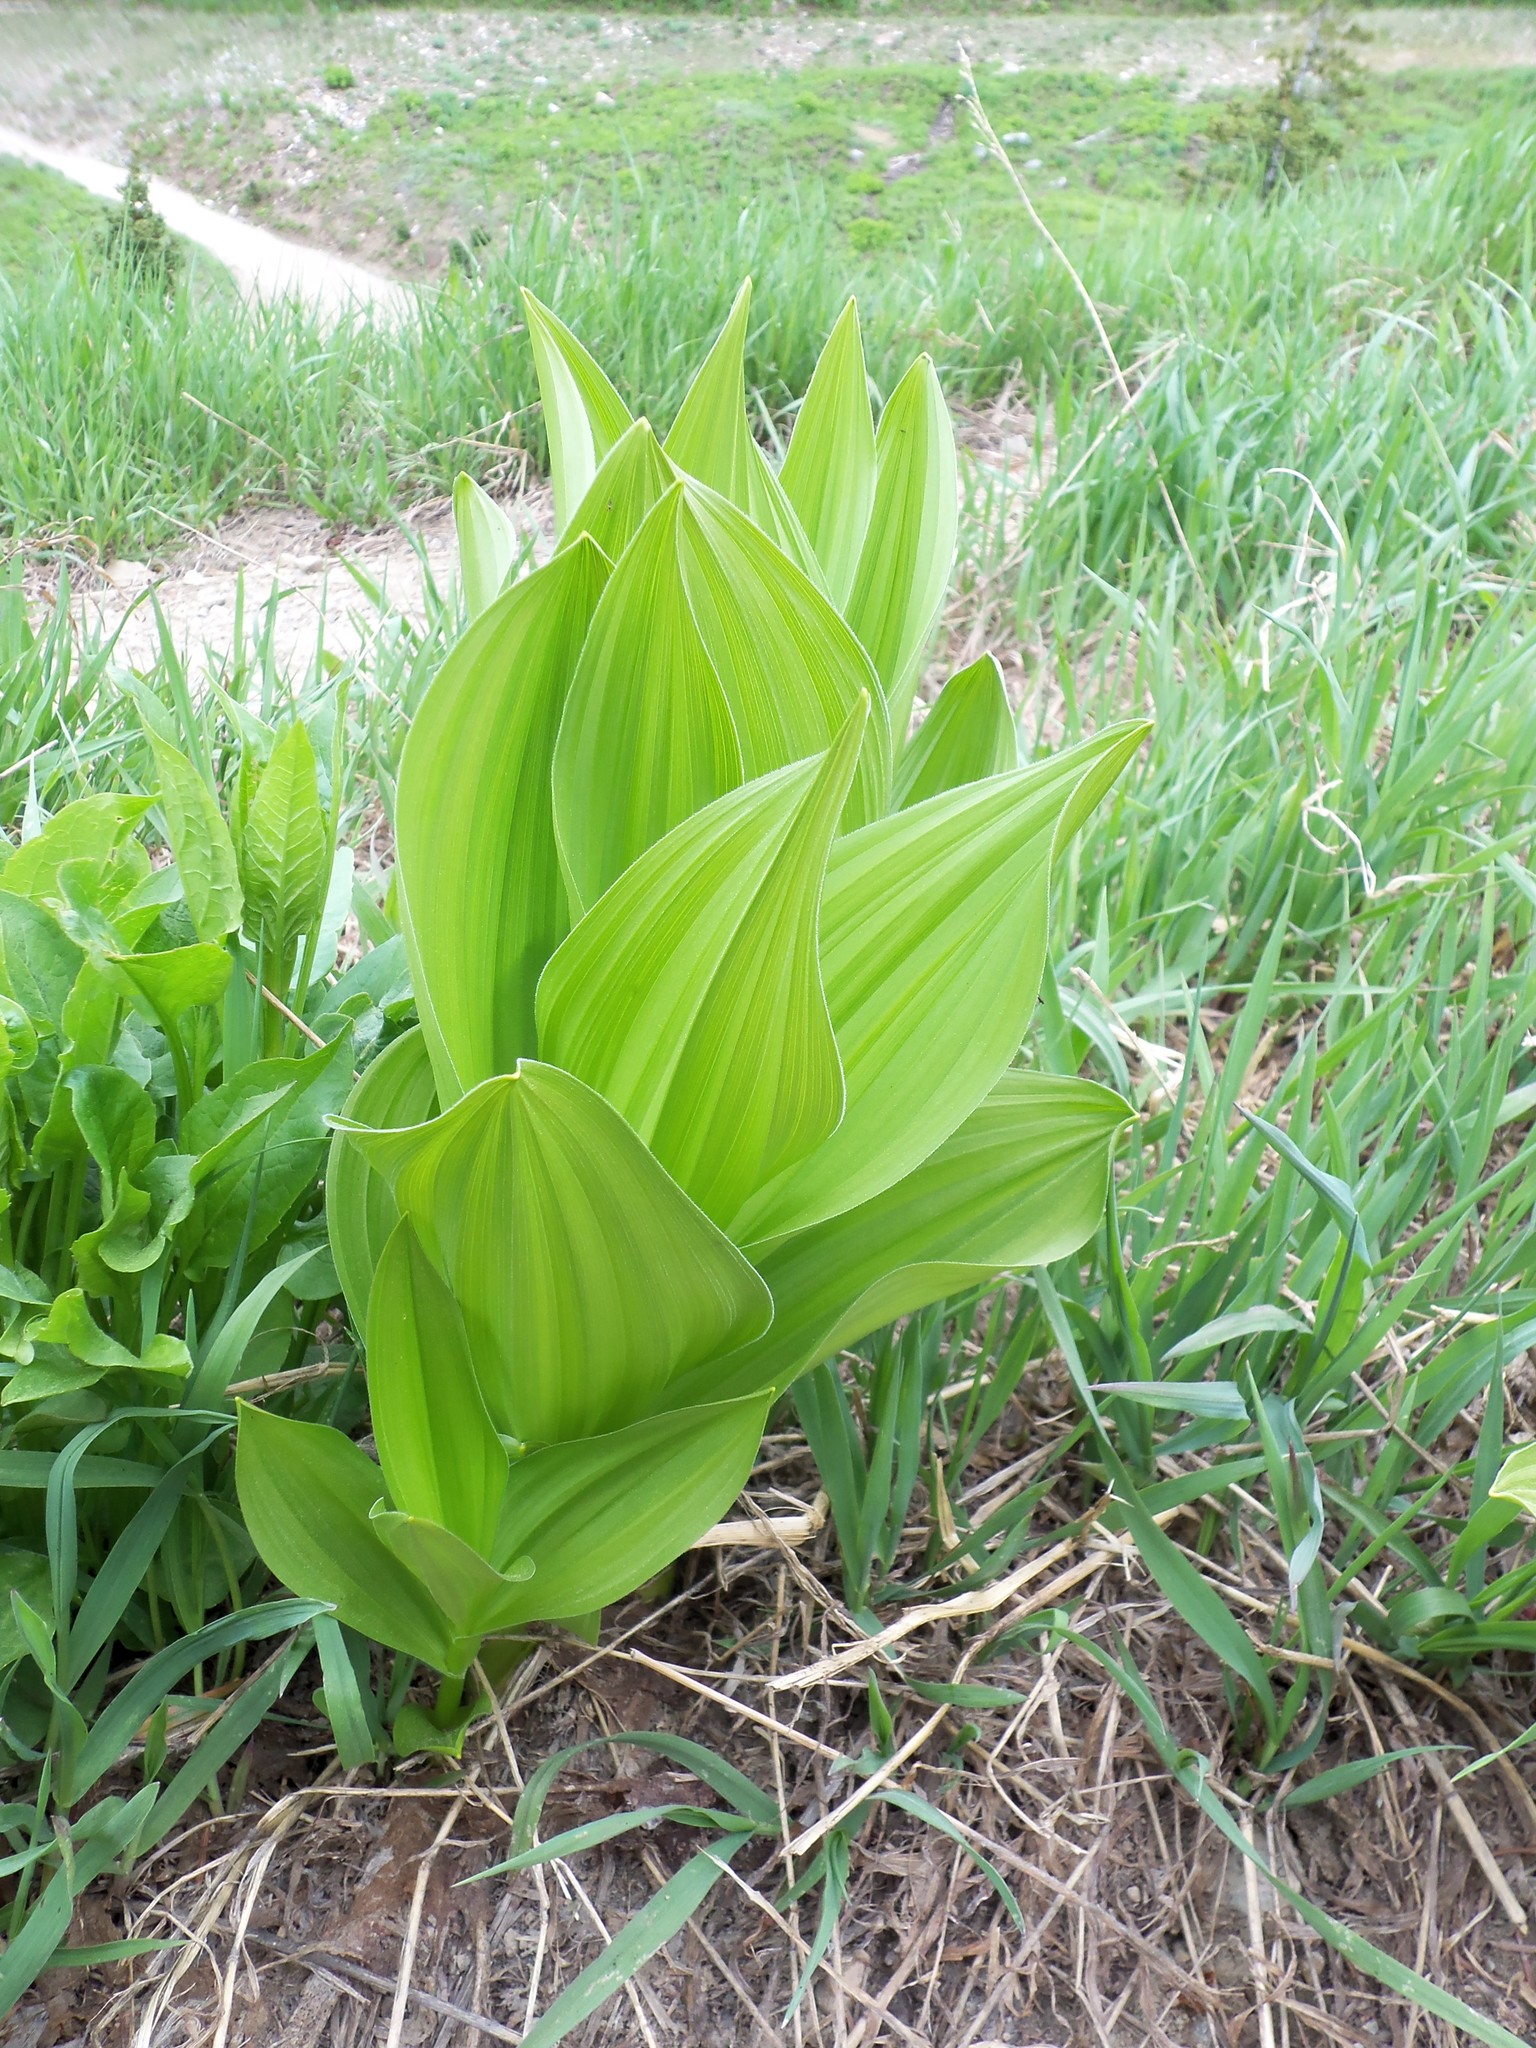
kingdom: Plantae
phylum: Tracheophyta
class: Liliopsida
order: Liliales
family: Melanthiaceae
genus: Veratrum
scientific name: Veratrum californicum
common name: California veratrum
